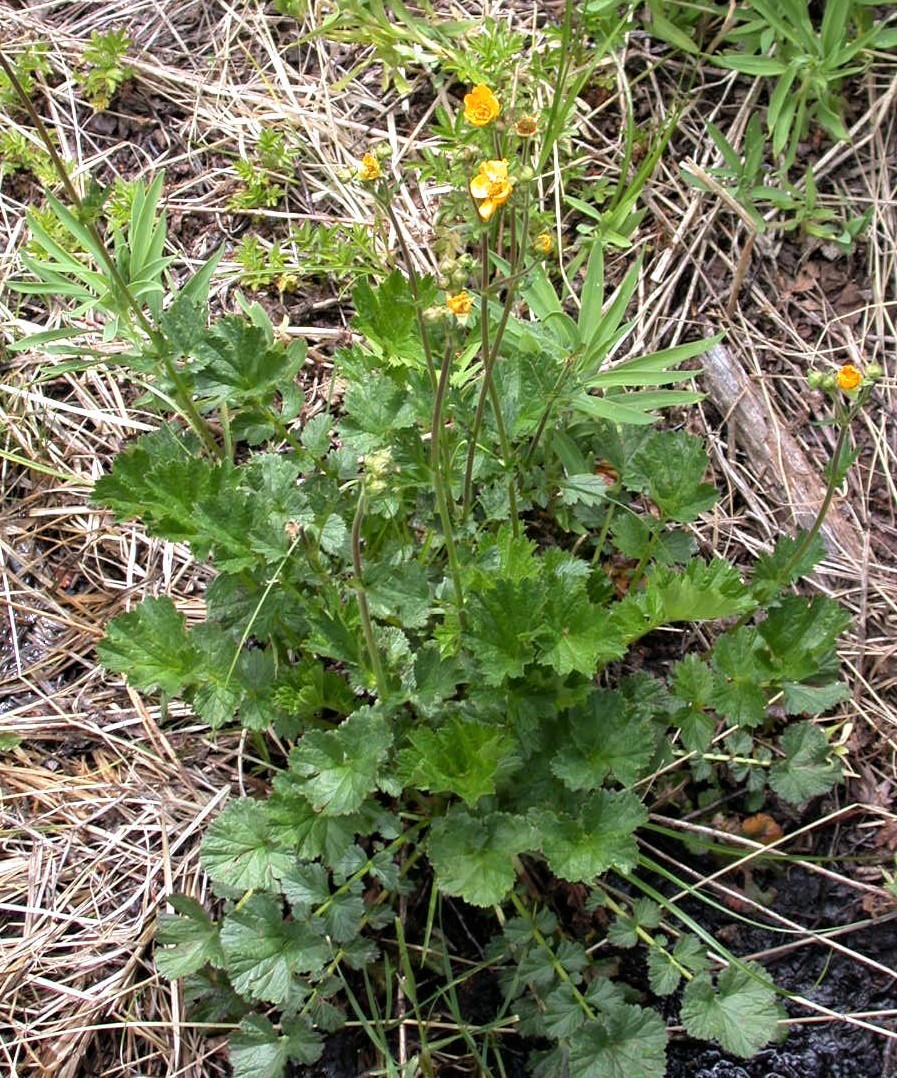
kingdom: Plantae
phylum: Tracheophyta
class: Magnoliopsida
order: Rosales
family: Rosaceae
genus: Geum
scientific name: Geum magellanicum
